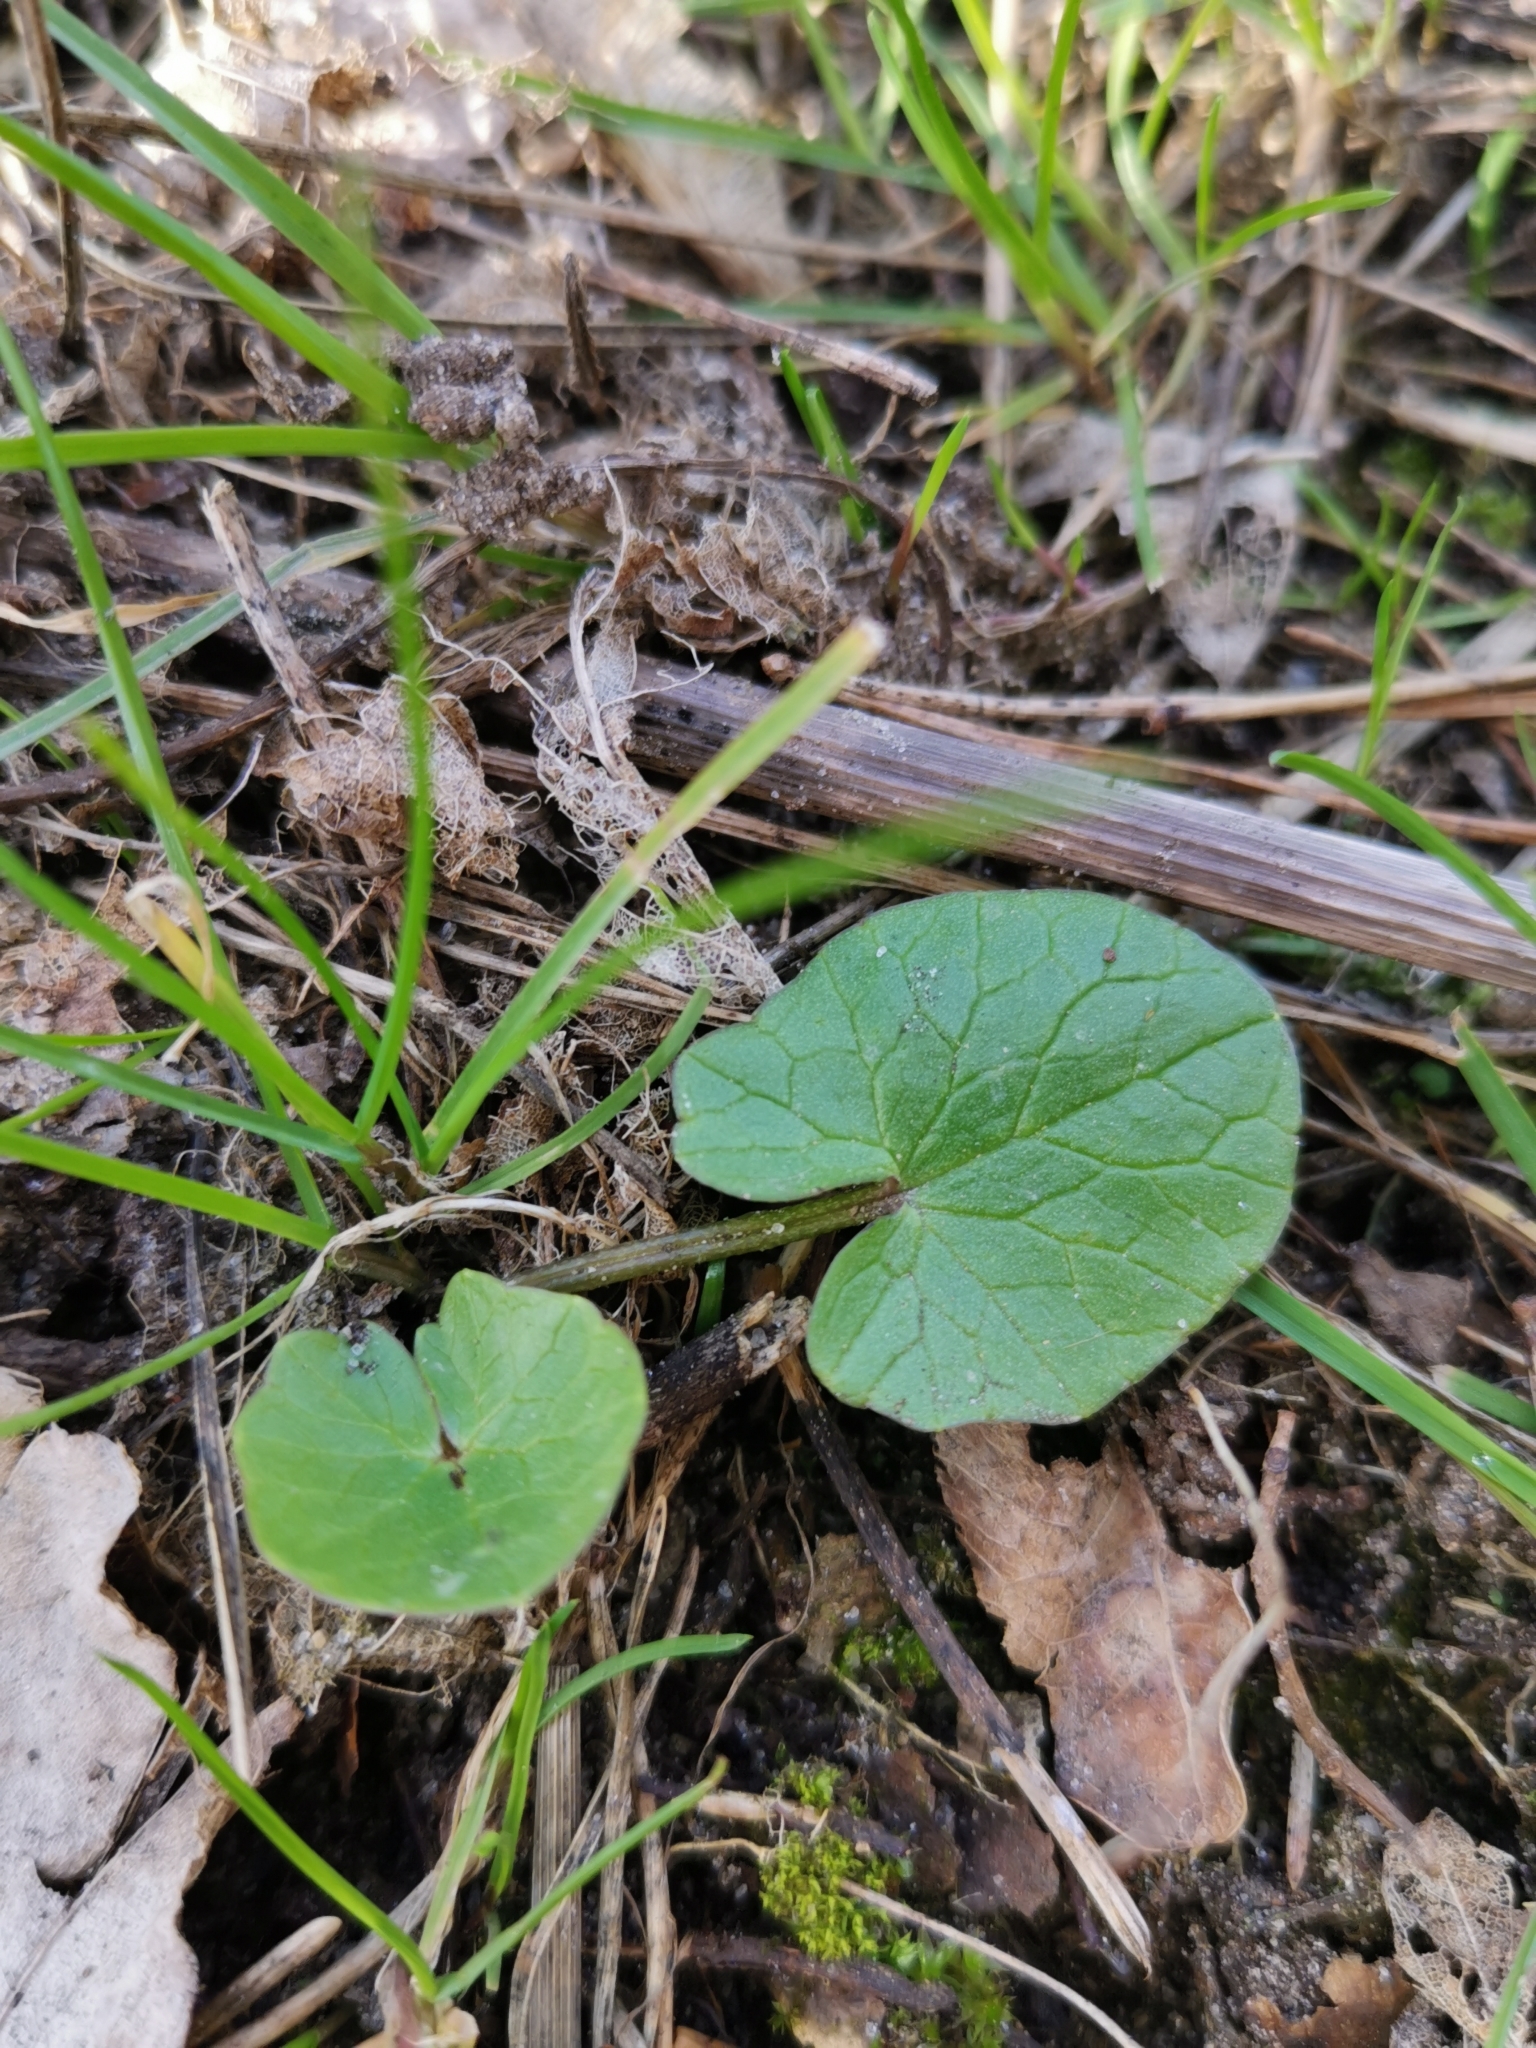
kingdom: Plantae
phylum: Tracheophyta
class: Magnoliopsida
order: Ranunculales
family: Ranunculaceae
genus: Ficaria
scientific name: Ficaria verna
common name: Lesser celandine
